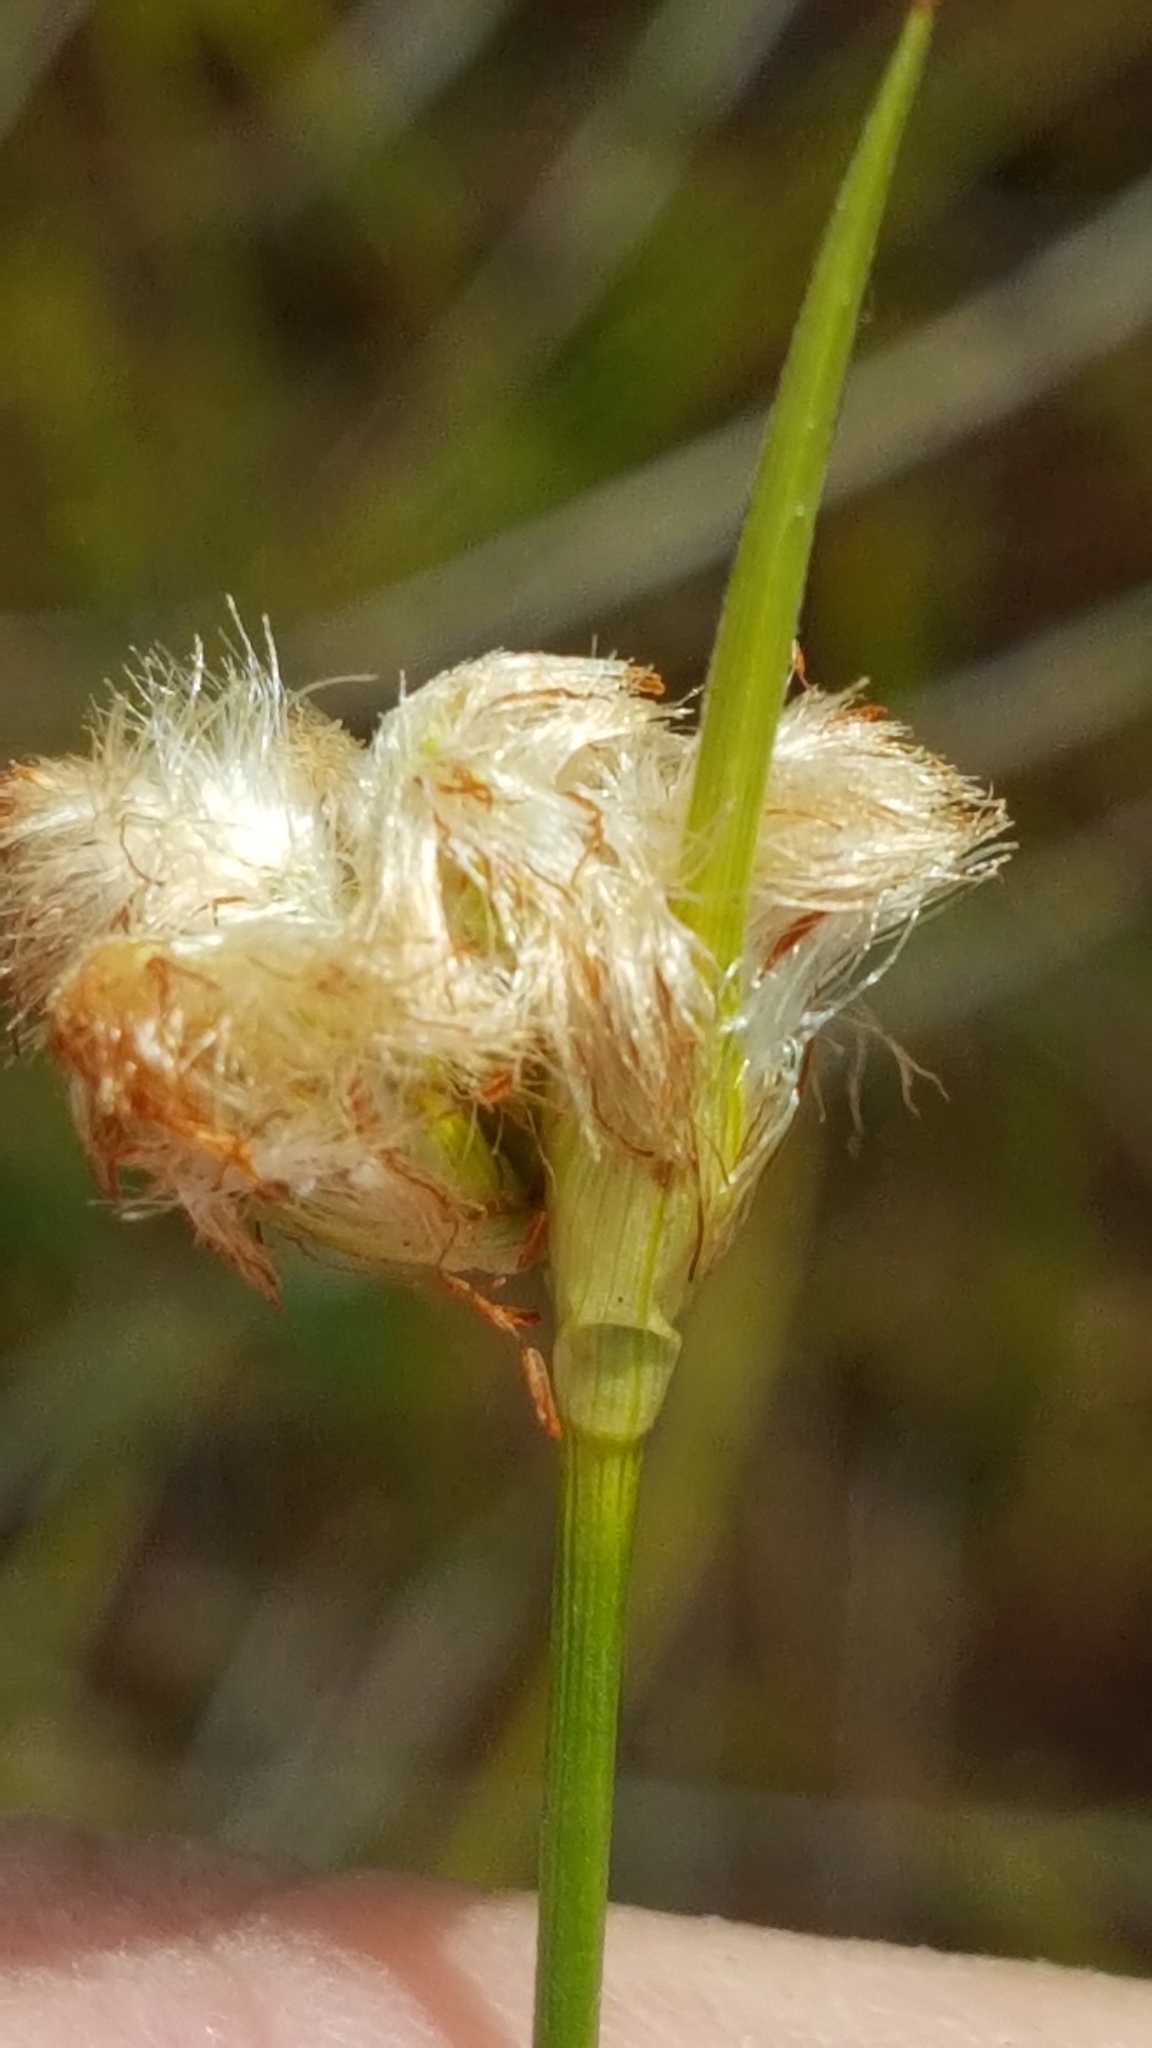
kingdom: Plantae
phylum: Tracheophyta
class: Liliopsida
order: Poales
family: Cyperaceae
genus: Eriophorum
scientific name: Eriophorum virginicum
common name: Tawny cottongrass
